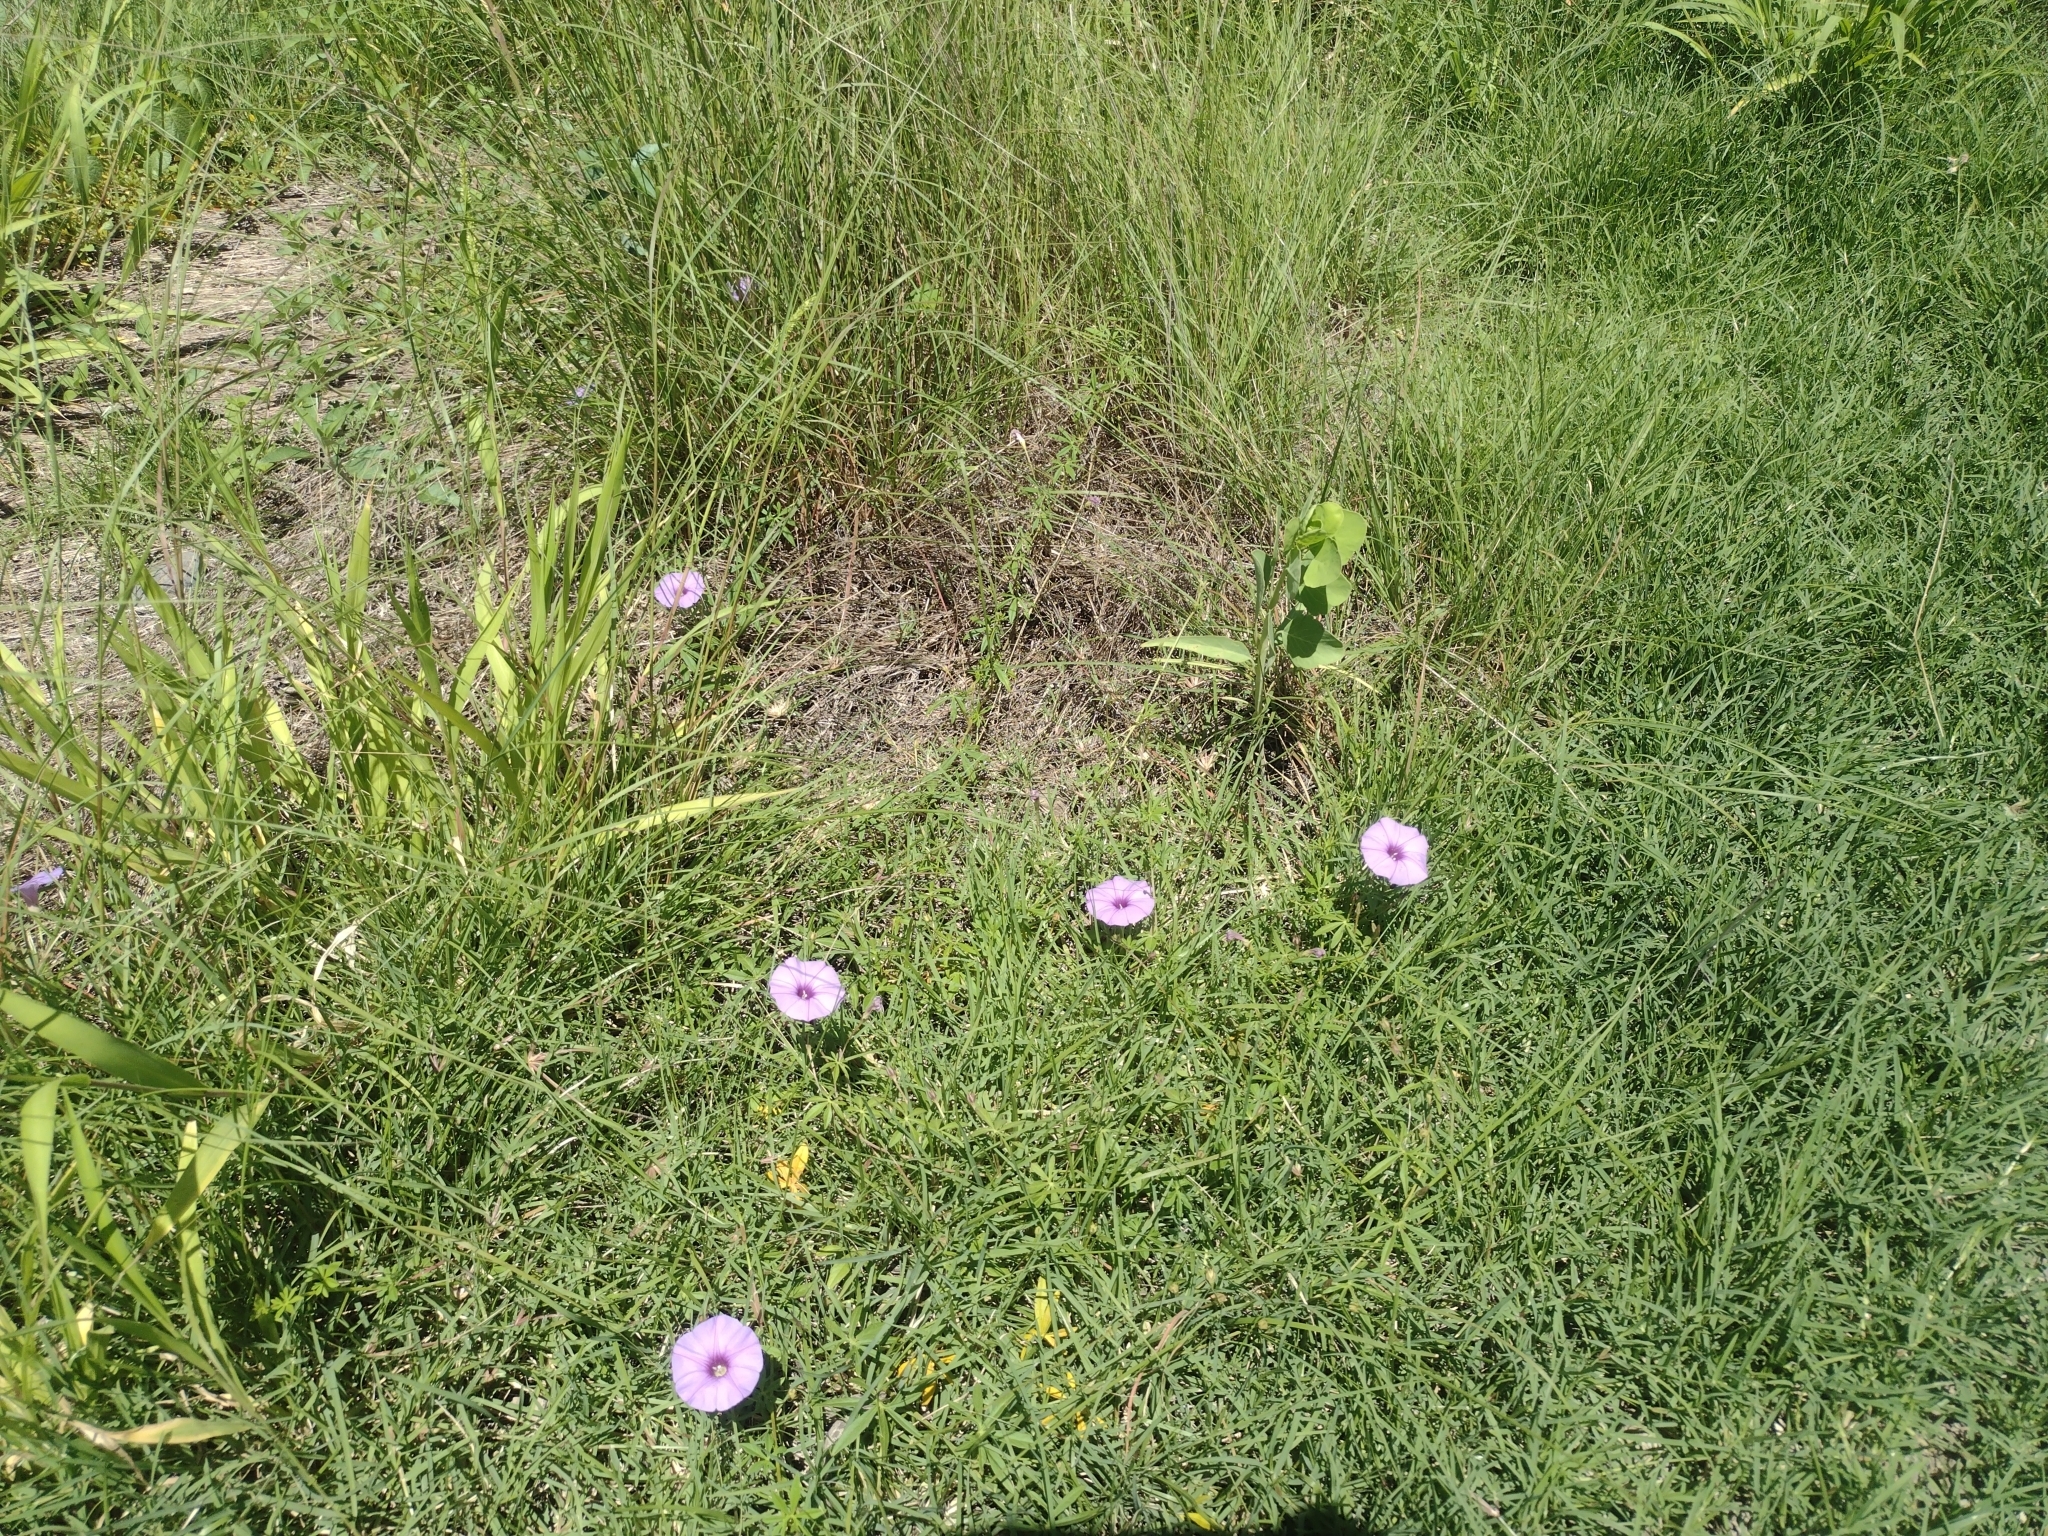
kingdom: Plantae
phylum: Tracheophyta
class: Magnoliopsida
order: Solanales
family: Convolvulaceae
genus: Ipomoea
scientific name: Ipomoea ternifolia
